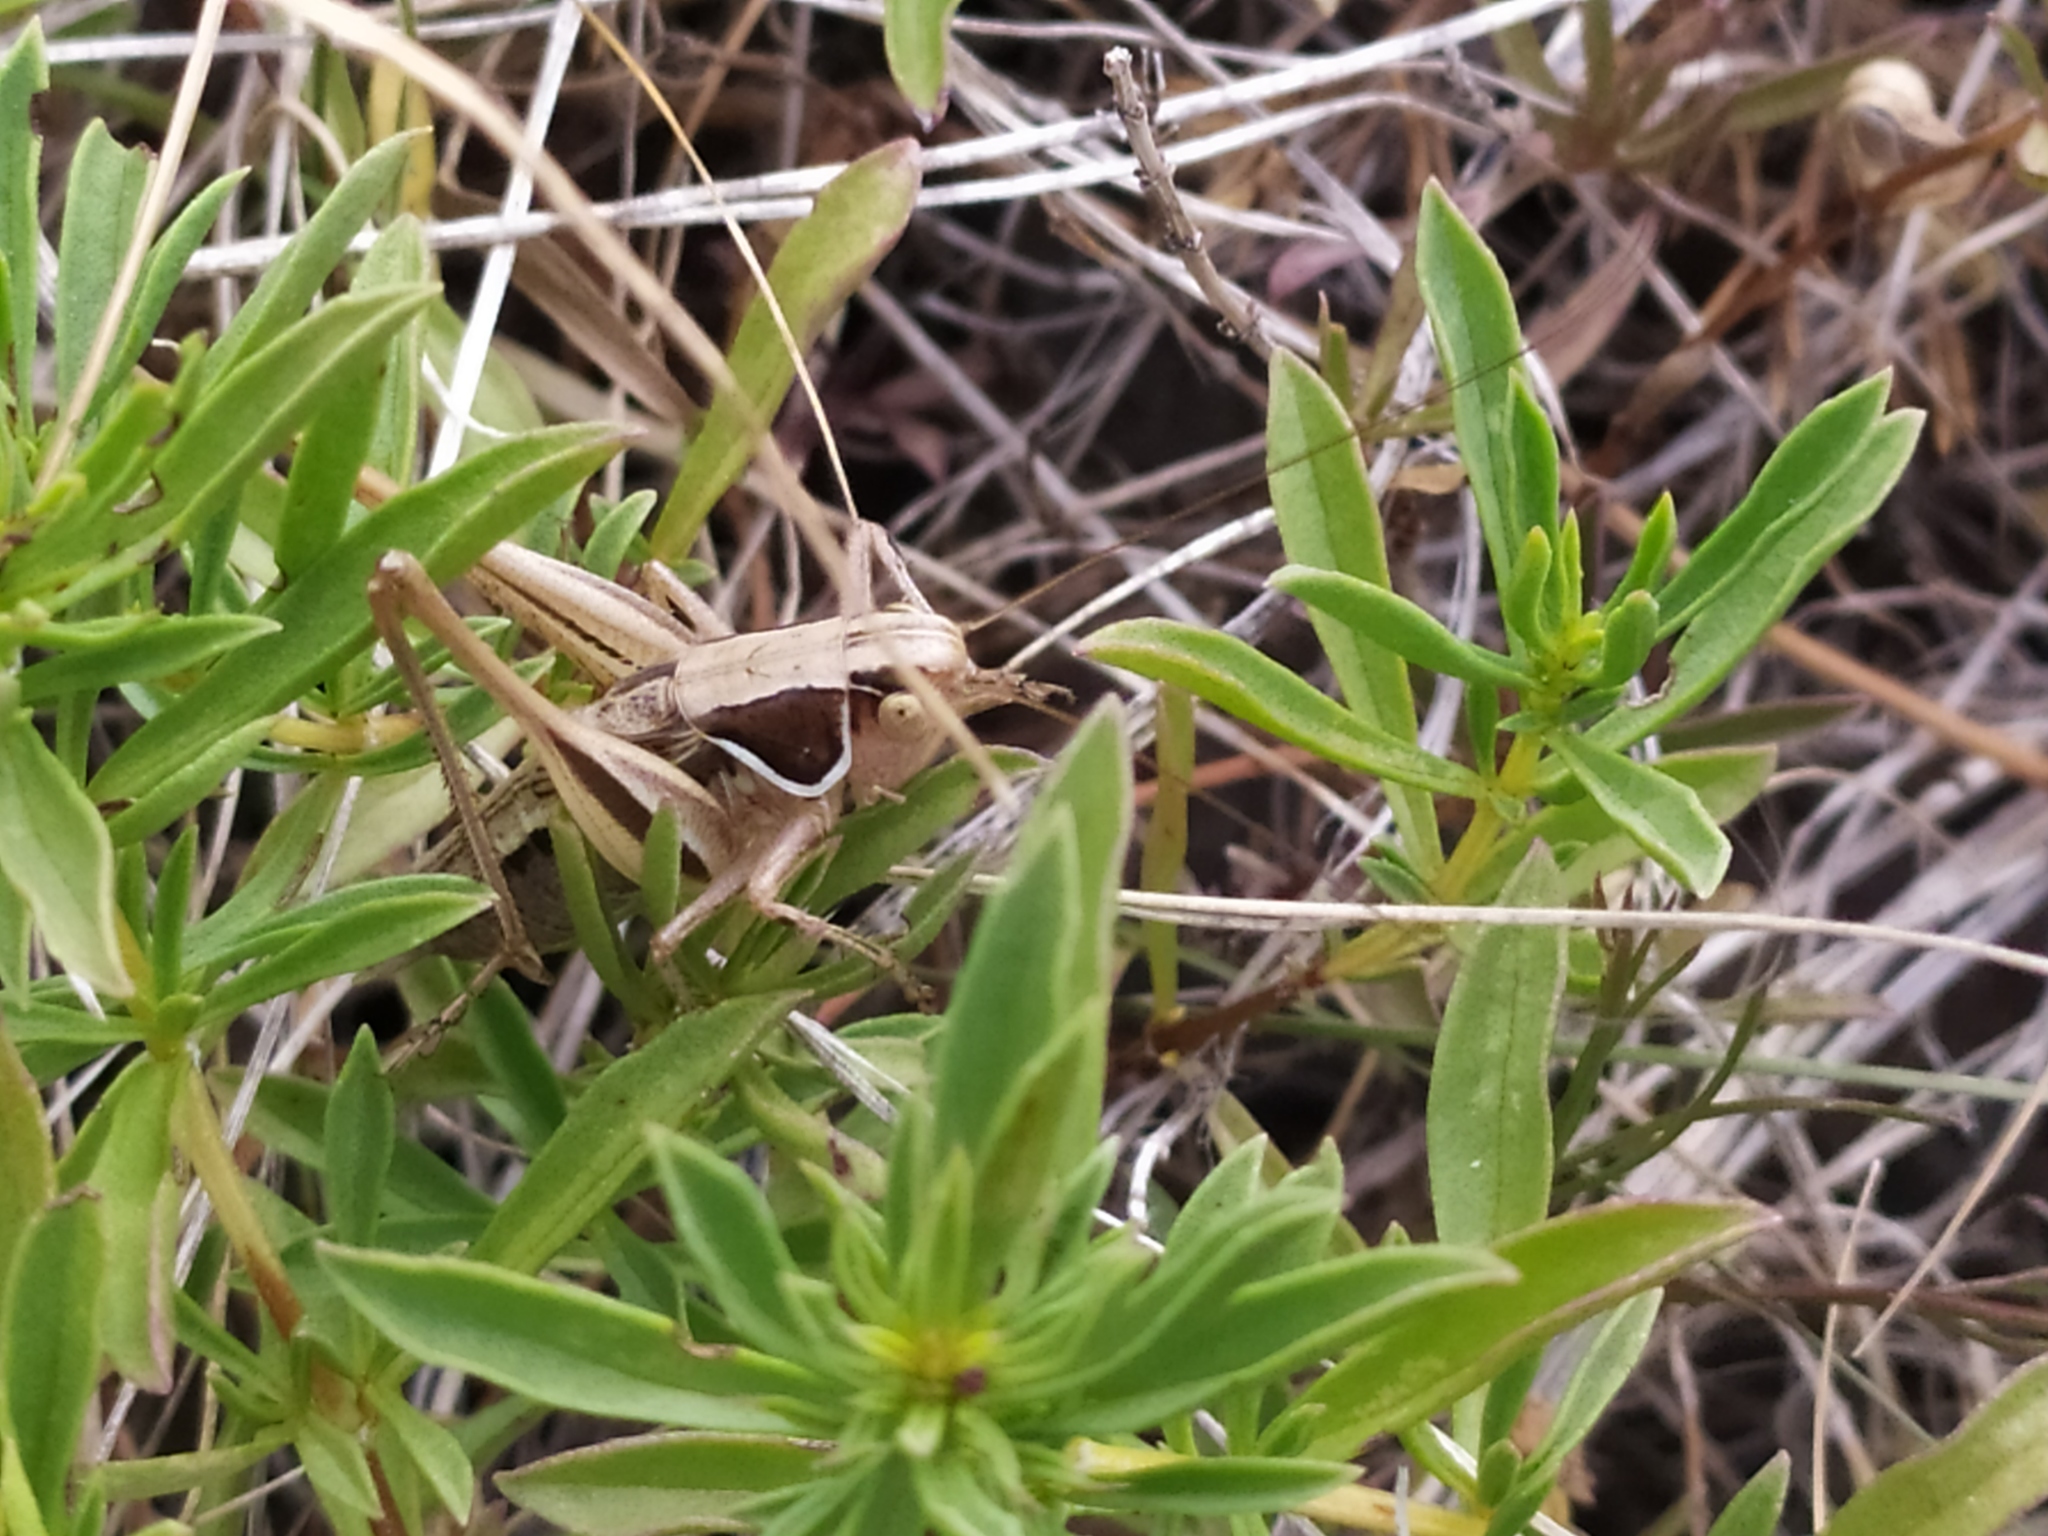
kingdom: Animalia
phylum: Arthropoda
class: Insecta
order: Orthoptera
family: Tettigoniidae
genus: Modestana
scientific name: Modestana modesta
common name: Common modest bush-cricket
